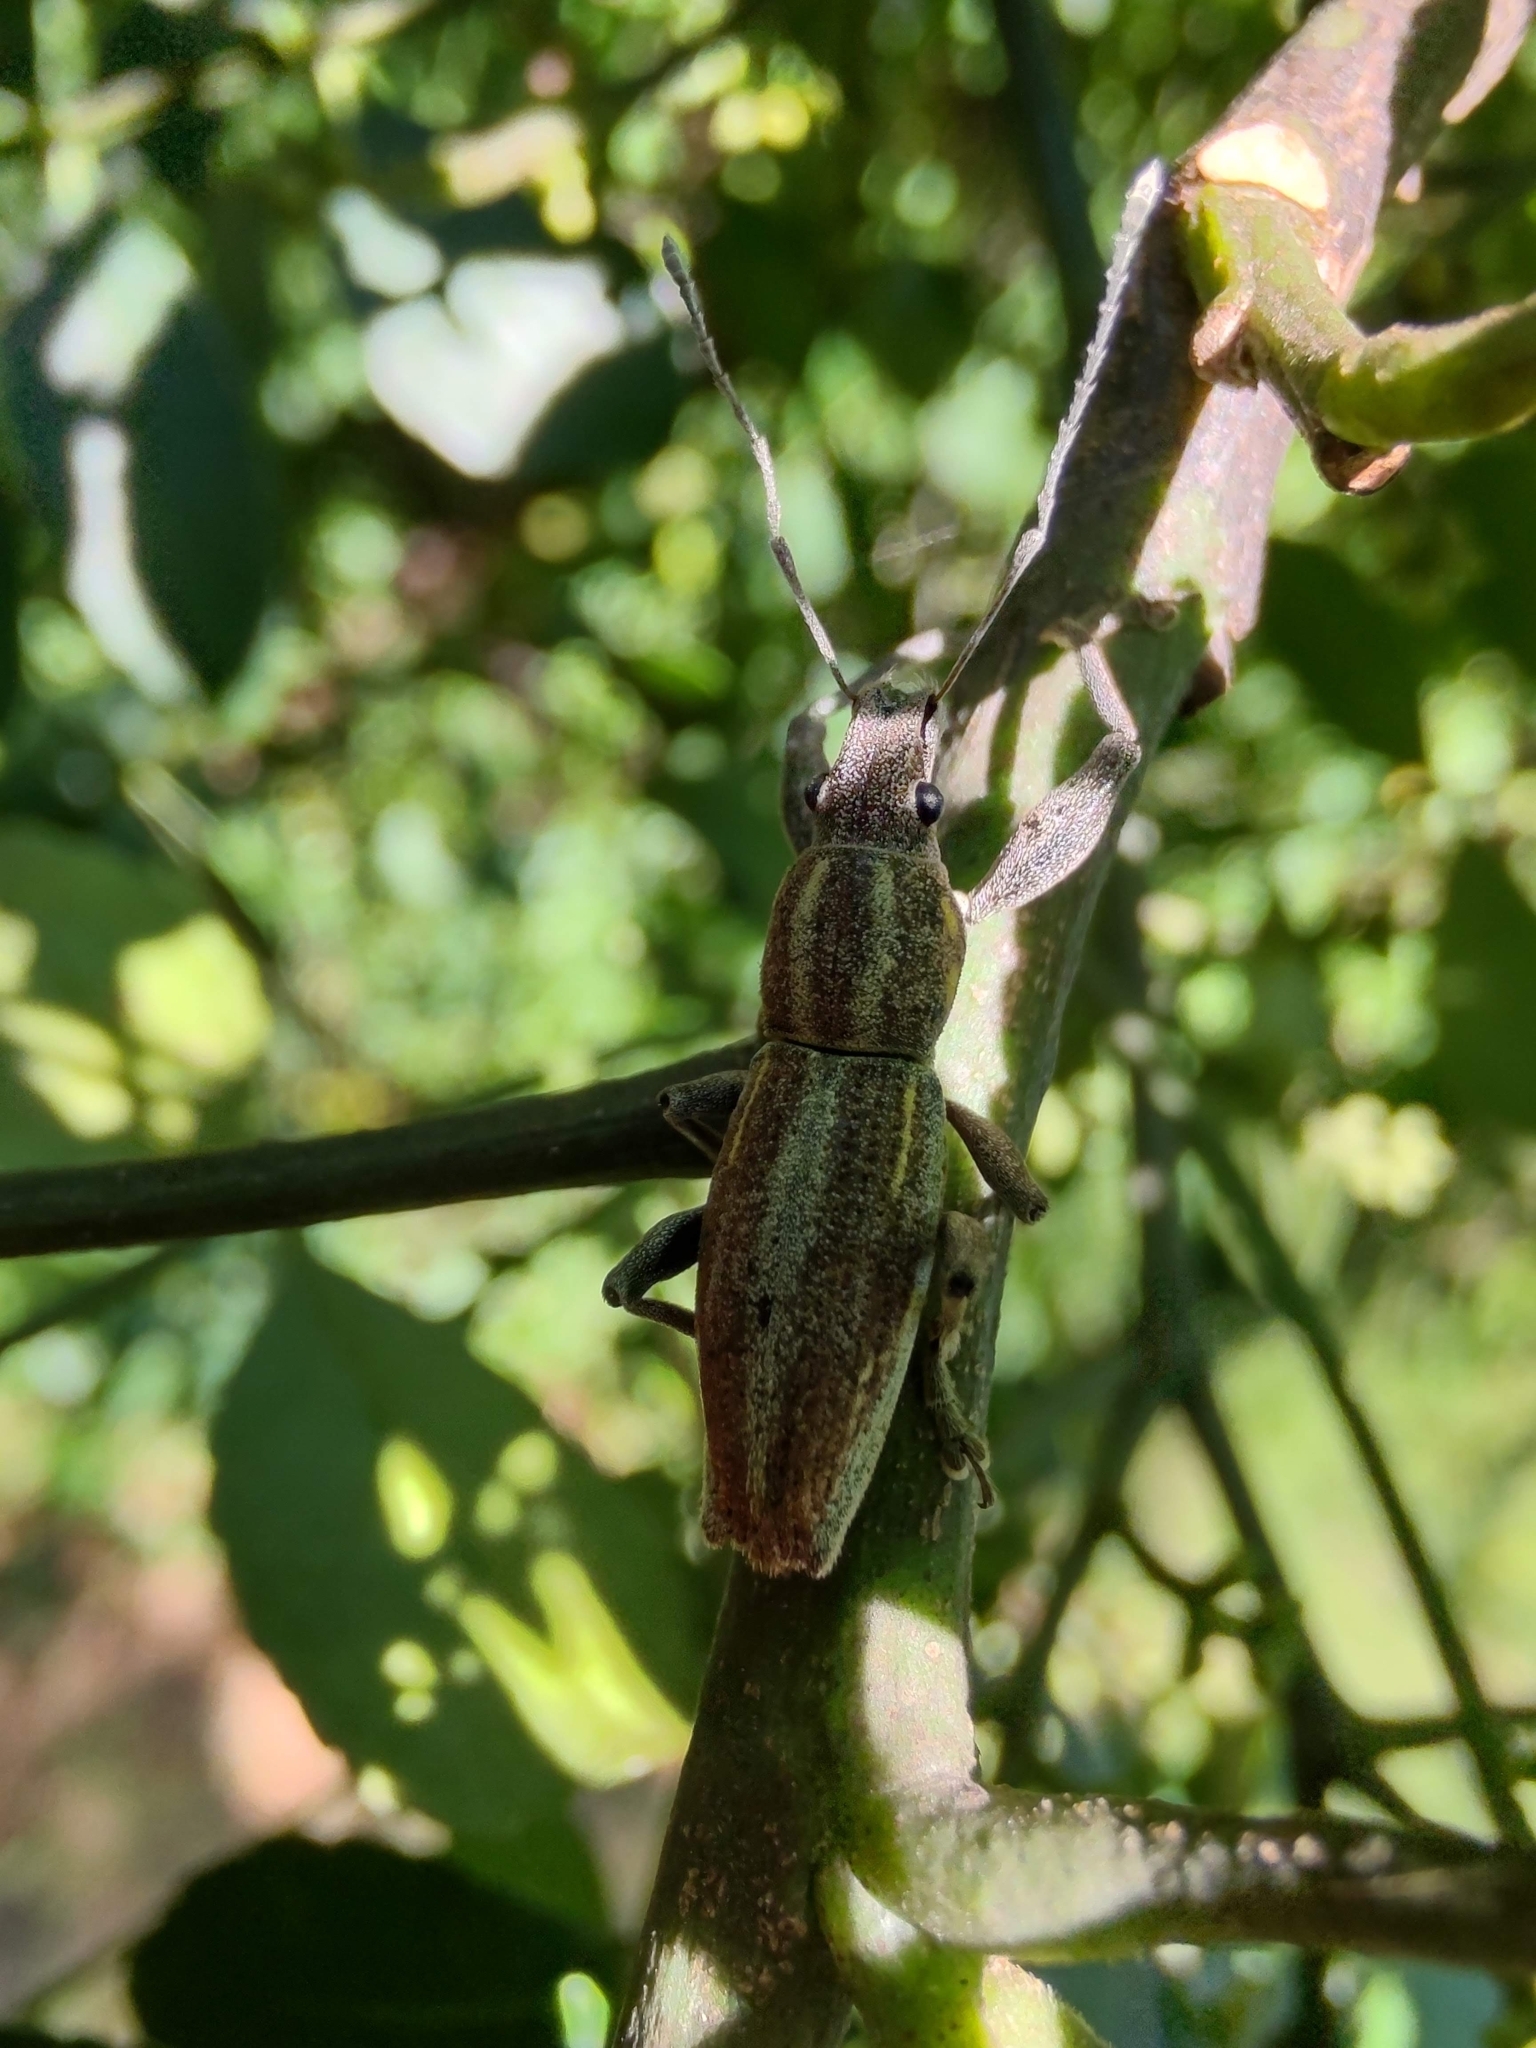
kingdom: Animalia
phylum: Arthropoda
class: Insecta
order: Coleoptera
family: Curculionidae
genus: Naupactus
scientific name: Naupactus xanthographus
